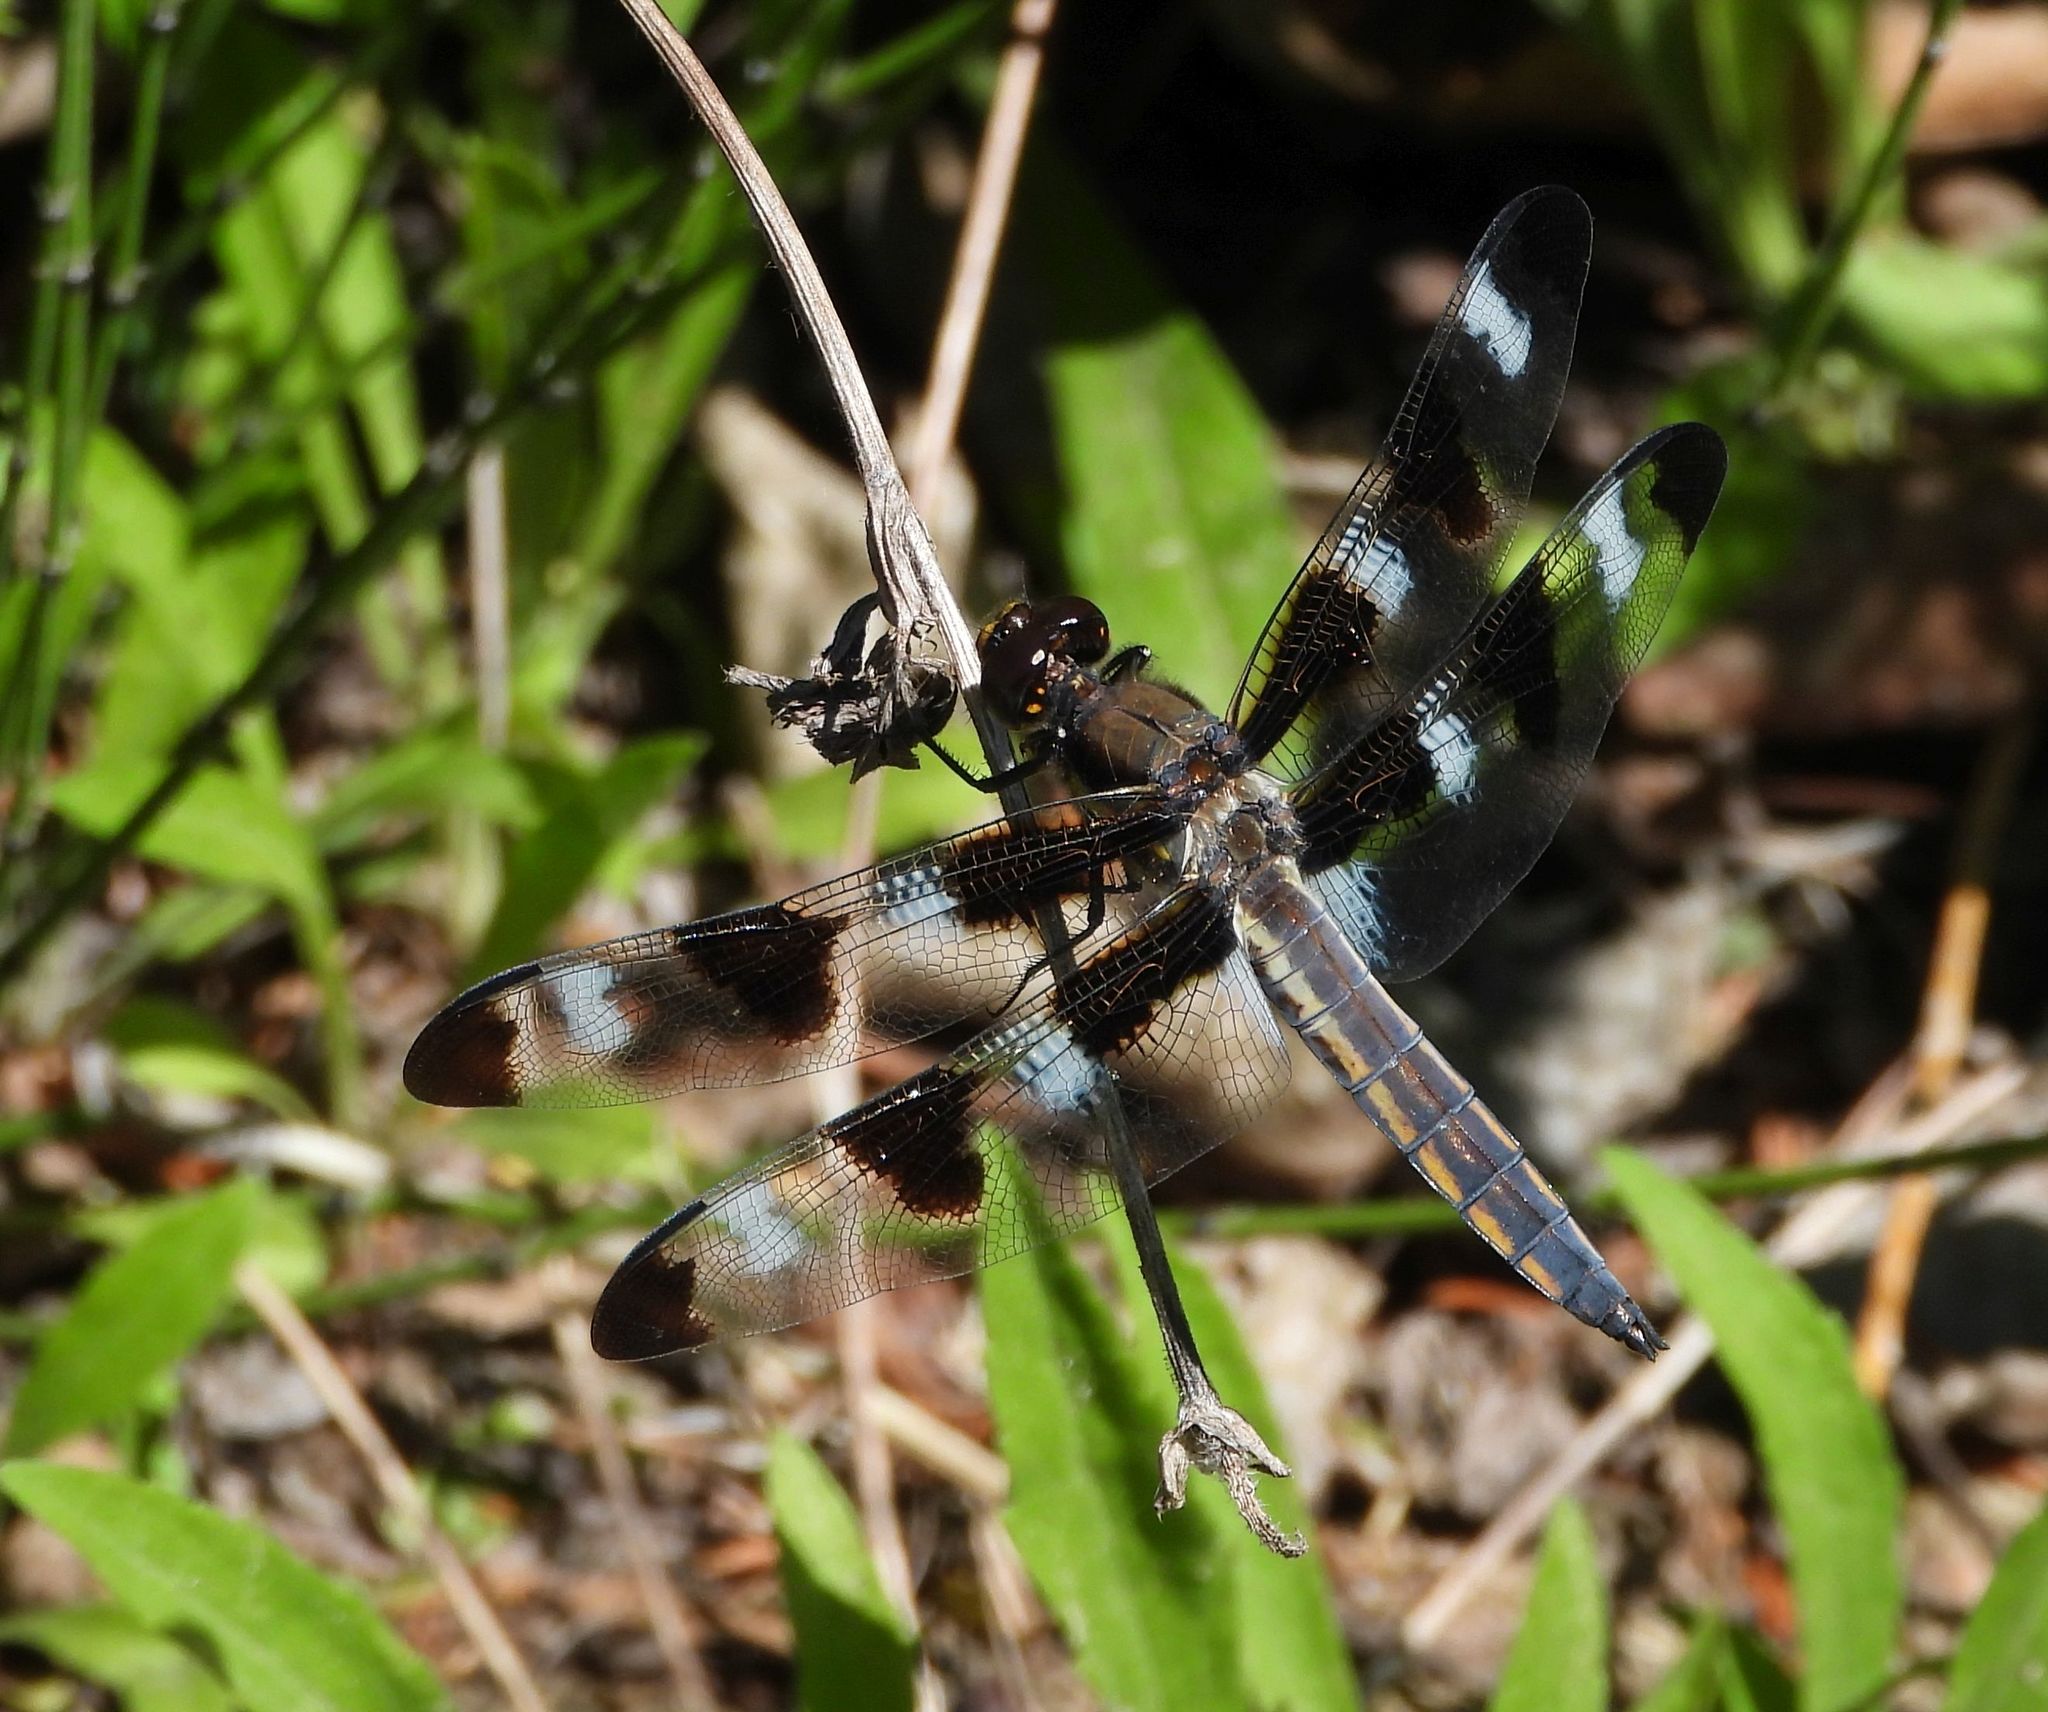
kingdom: Animalia
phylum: Arthropoda
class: Insecta
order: Odonata
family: Libellulidae
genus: Libellula
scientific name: Libellula pulchella
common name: Twelve-spotted skimmer
